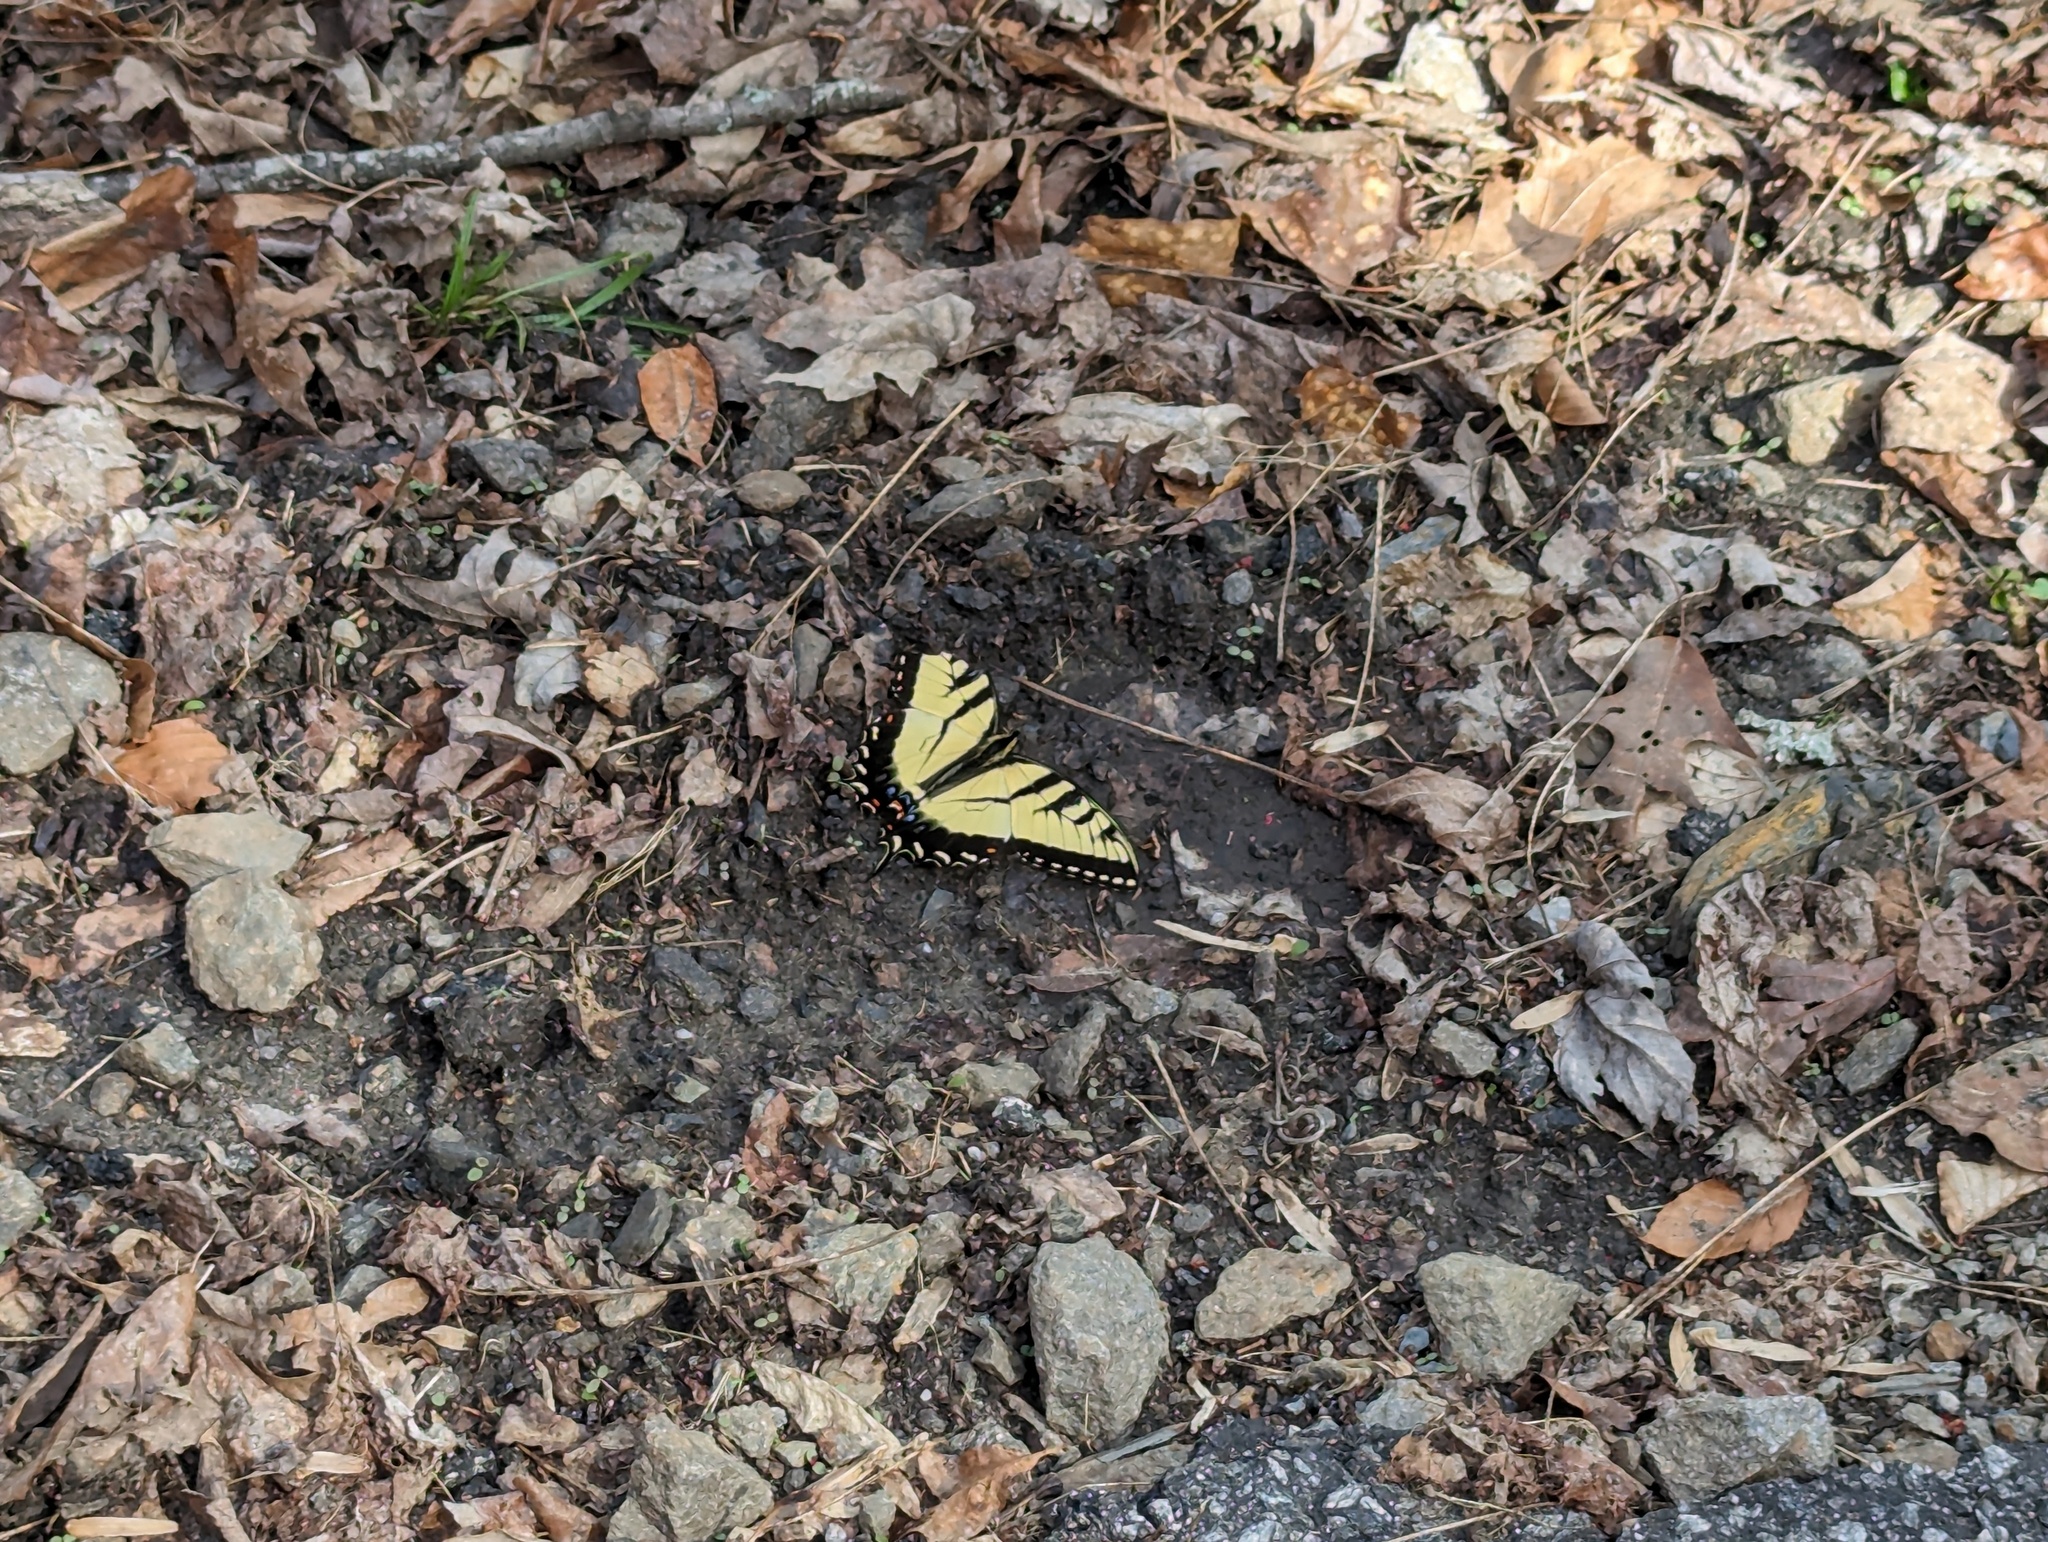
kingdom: Animalia
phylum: Arthropoda
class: Insecta
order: Lepidoptera
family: Papilionidae
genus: Papilio
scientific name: Papilio glaucus
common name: Tiger swallowtail
